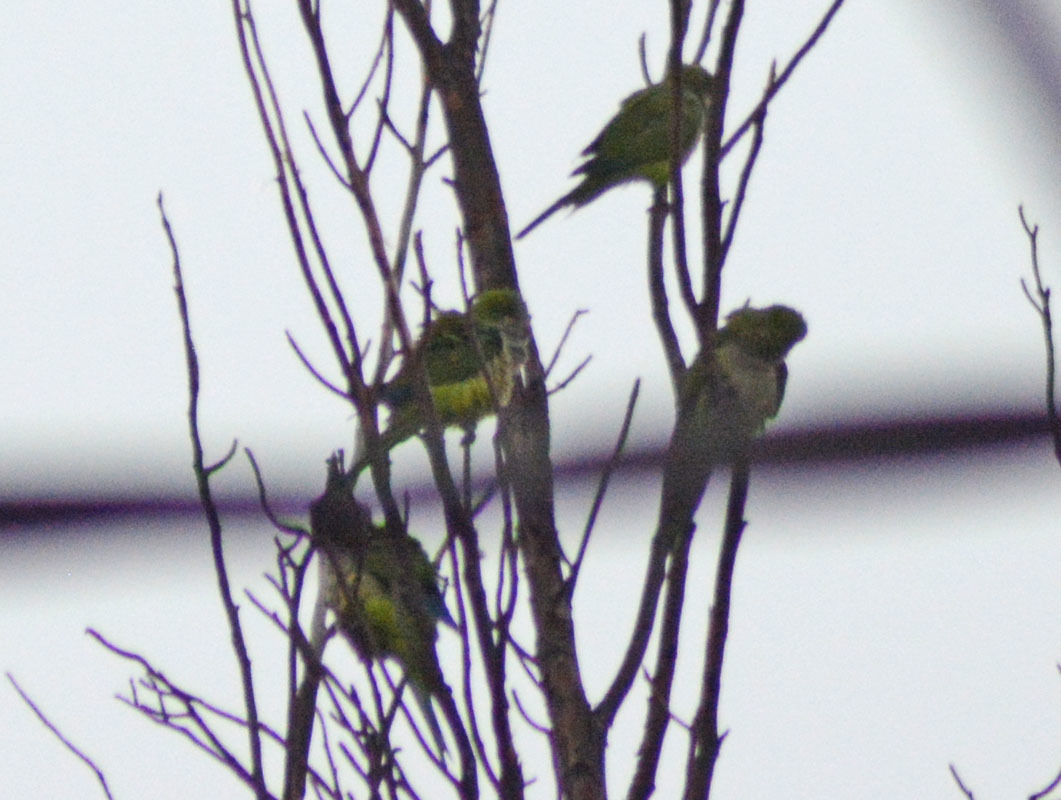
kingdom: Animalia
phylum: Chordata
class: Aves
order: Psittaciformes
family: Psittacidae
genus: Myiopsitta
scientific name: Myiopsitta monachus
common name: Monk parakeet
